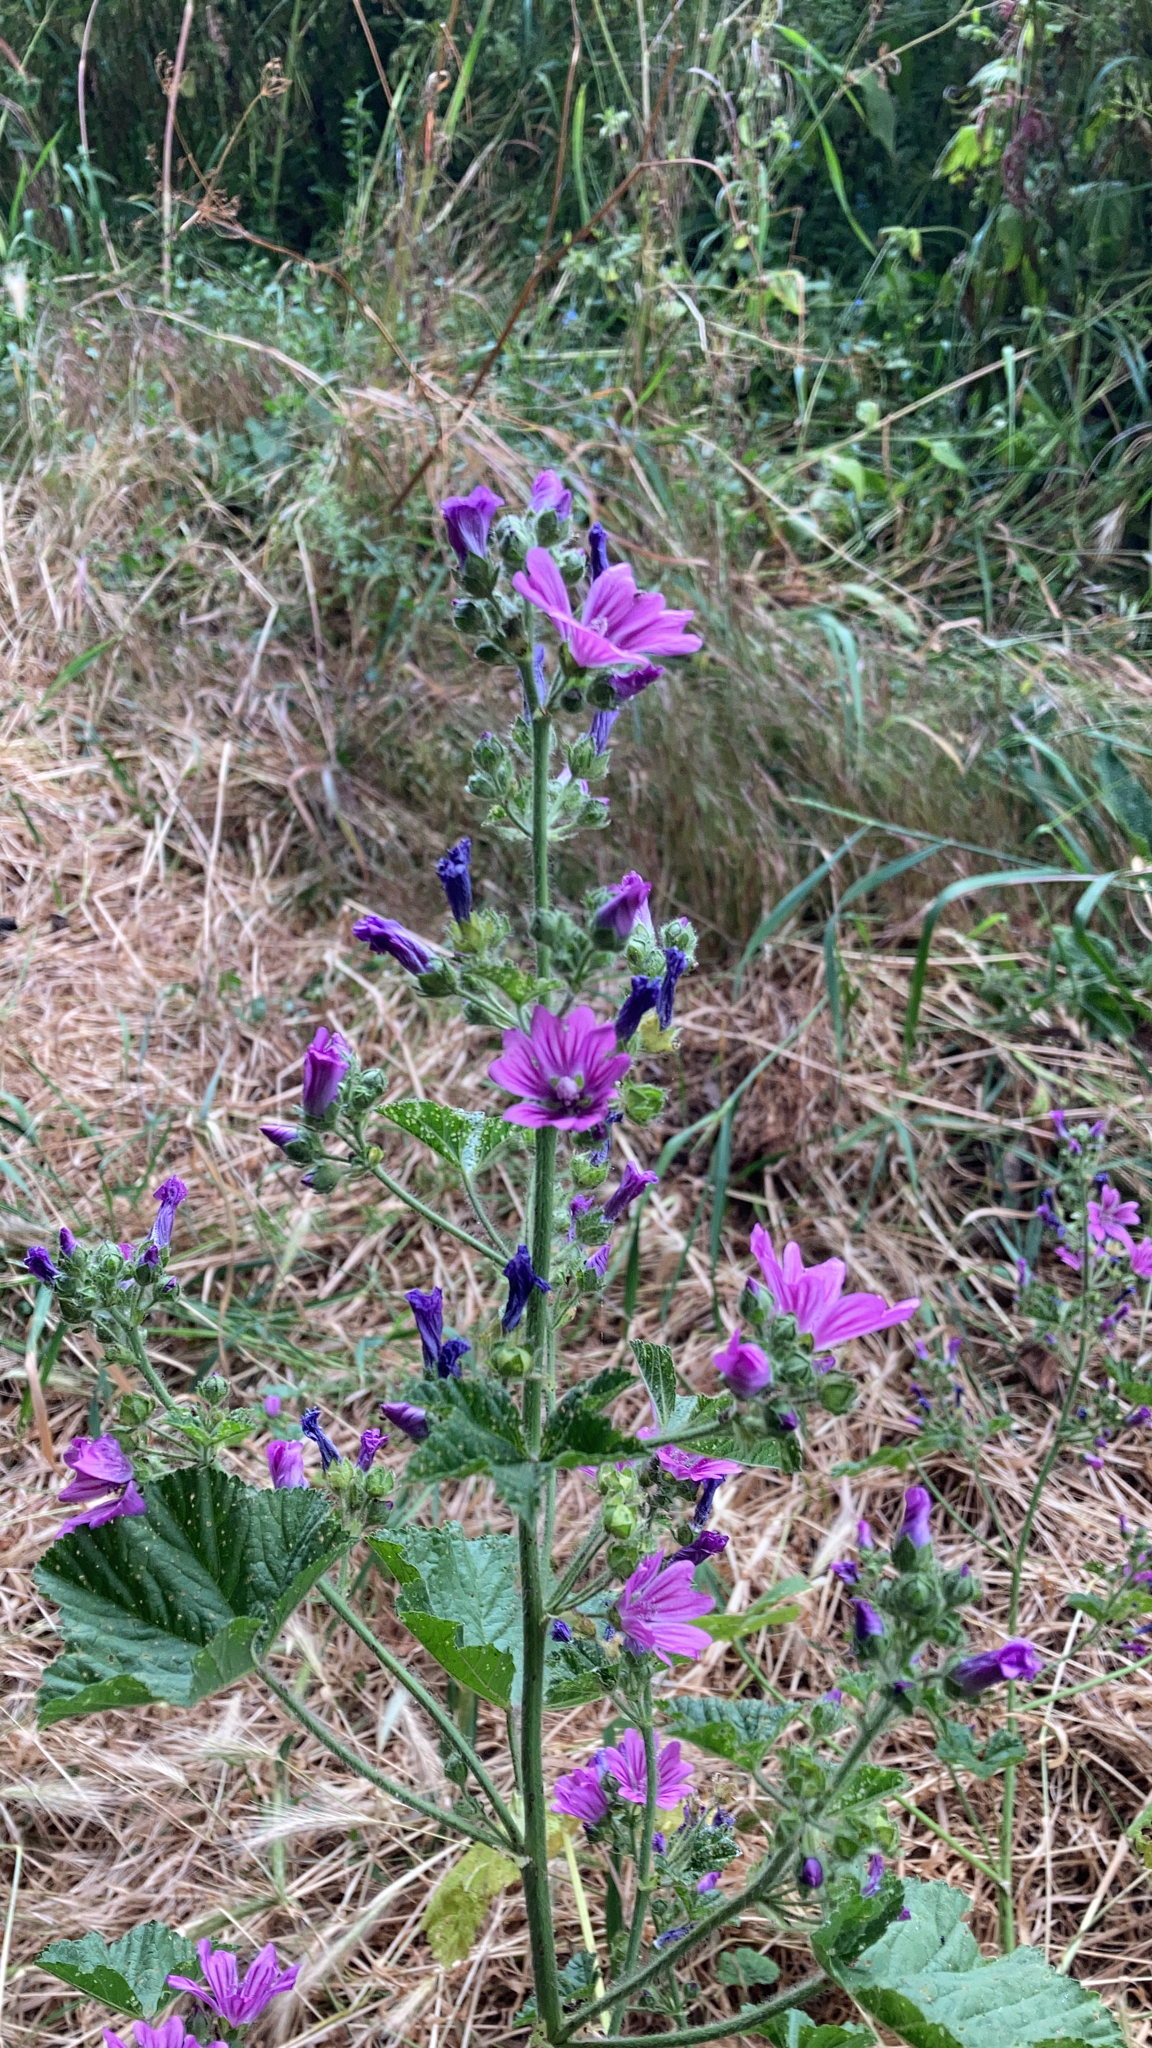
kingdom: Plantae
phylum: Tracheophyta
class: Magnoliopsida
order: Malvales
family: Malvaceae
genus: Malva
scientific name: Malva sylvestris
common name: Common mallow
